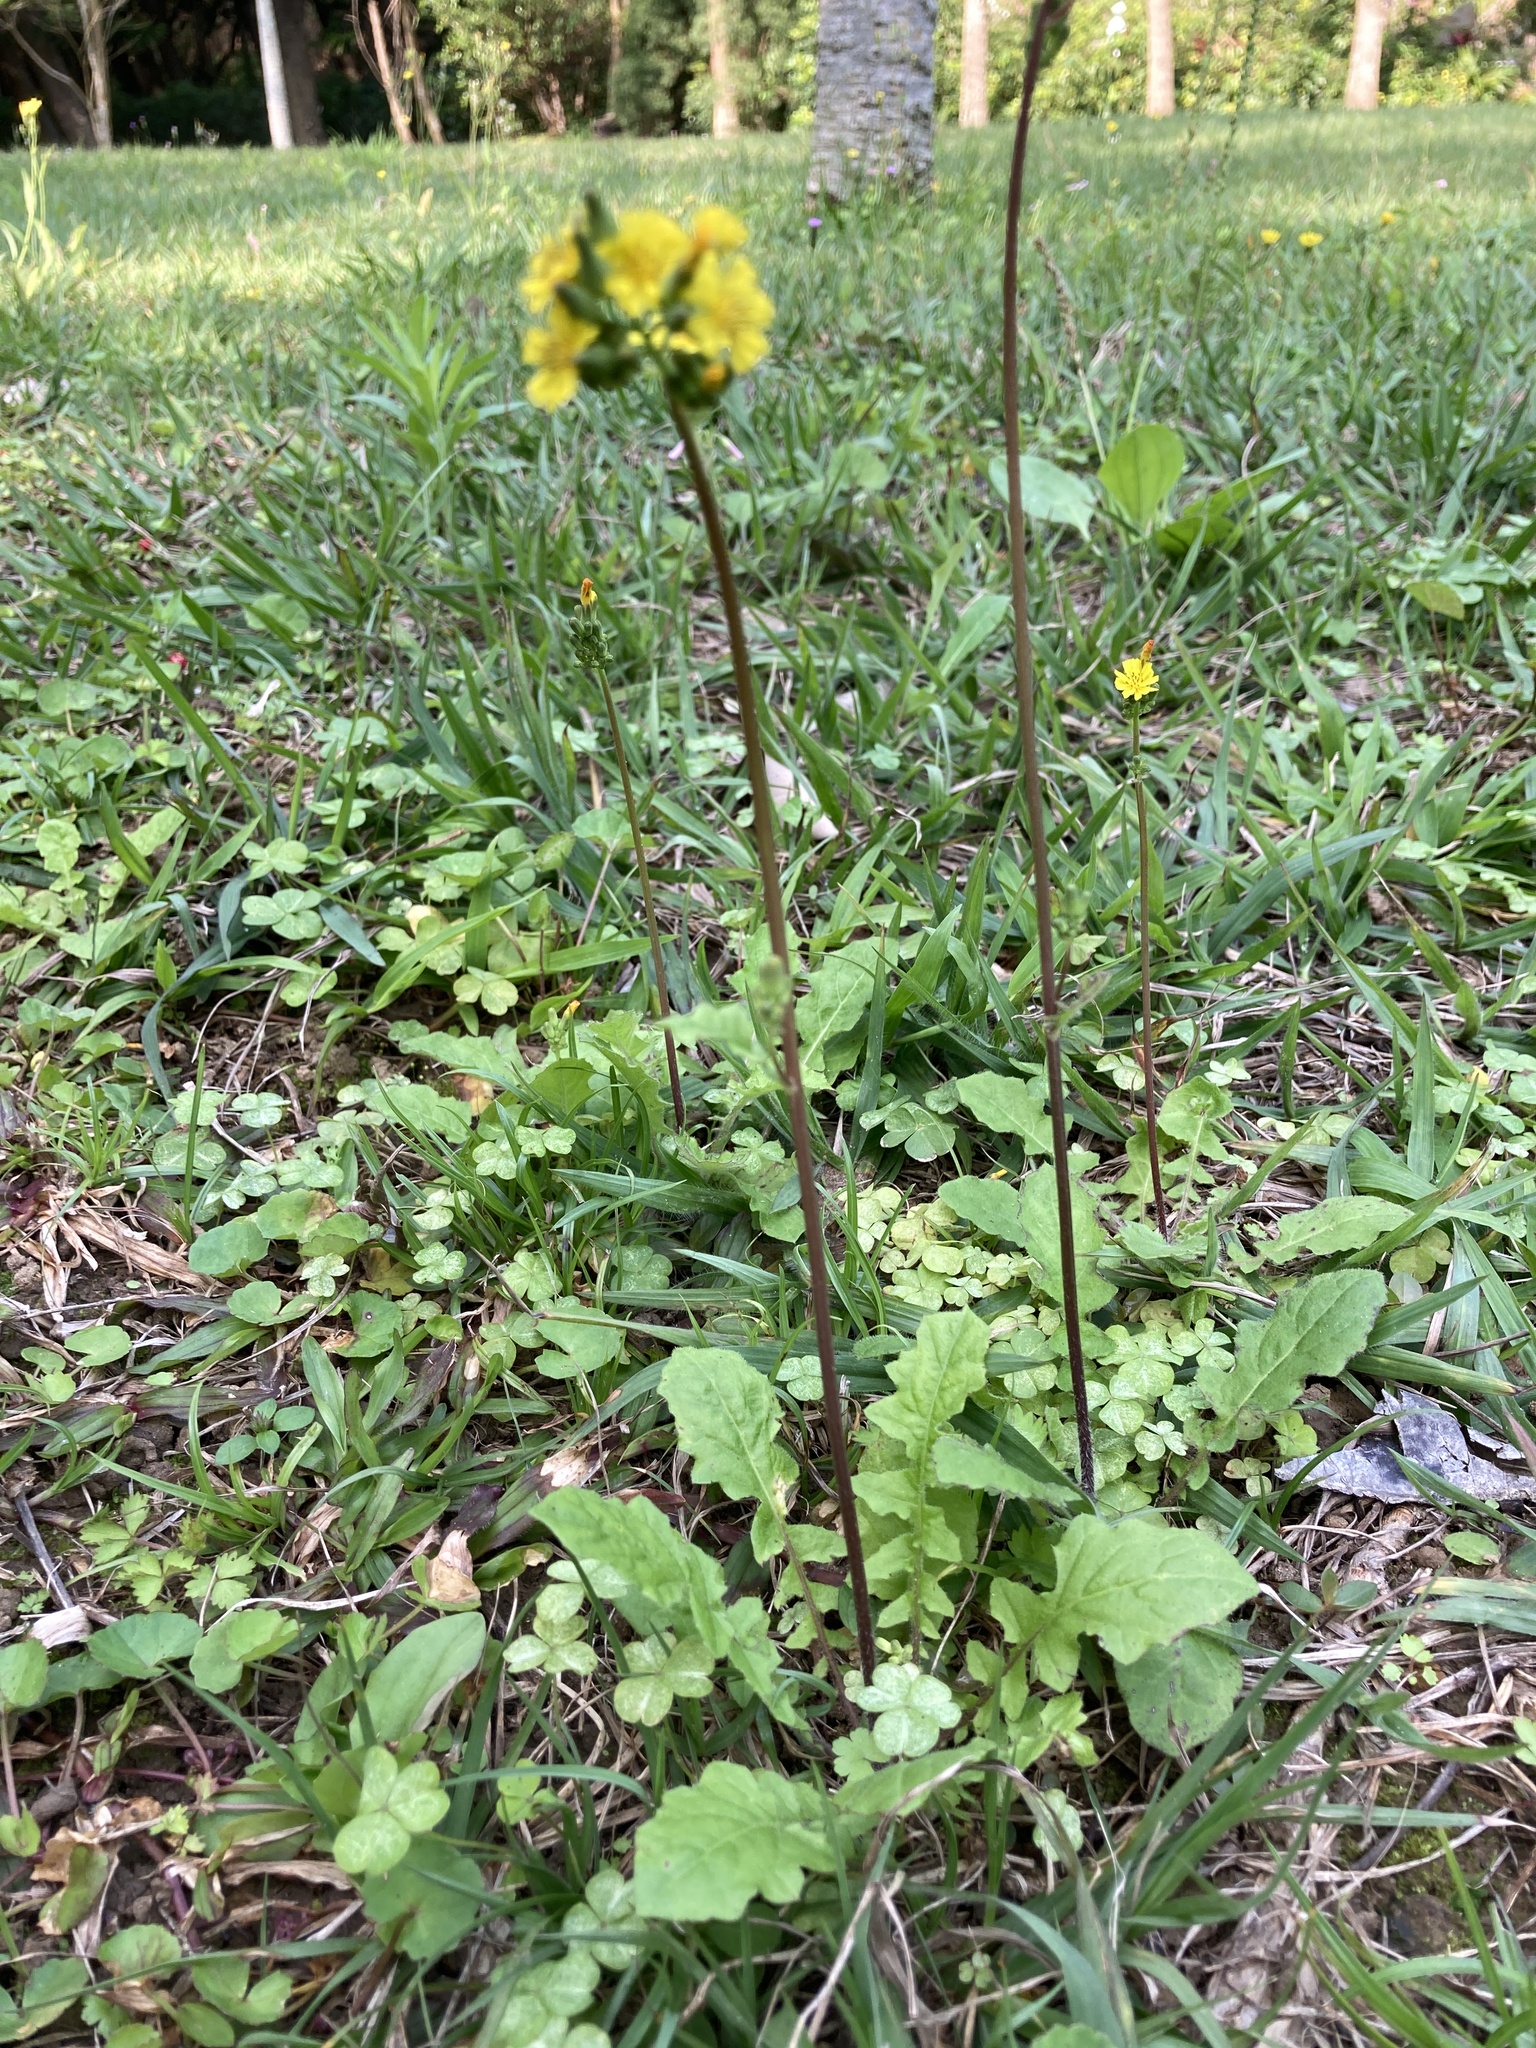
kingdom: Plantae
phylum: Tracheophyta
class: Magnoliopsida
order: Asterales
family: Asteraceae
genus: Youngia
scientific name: Youngia japonica
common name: Oriental false hawksbeard
